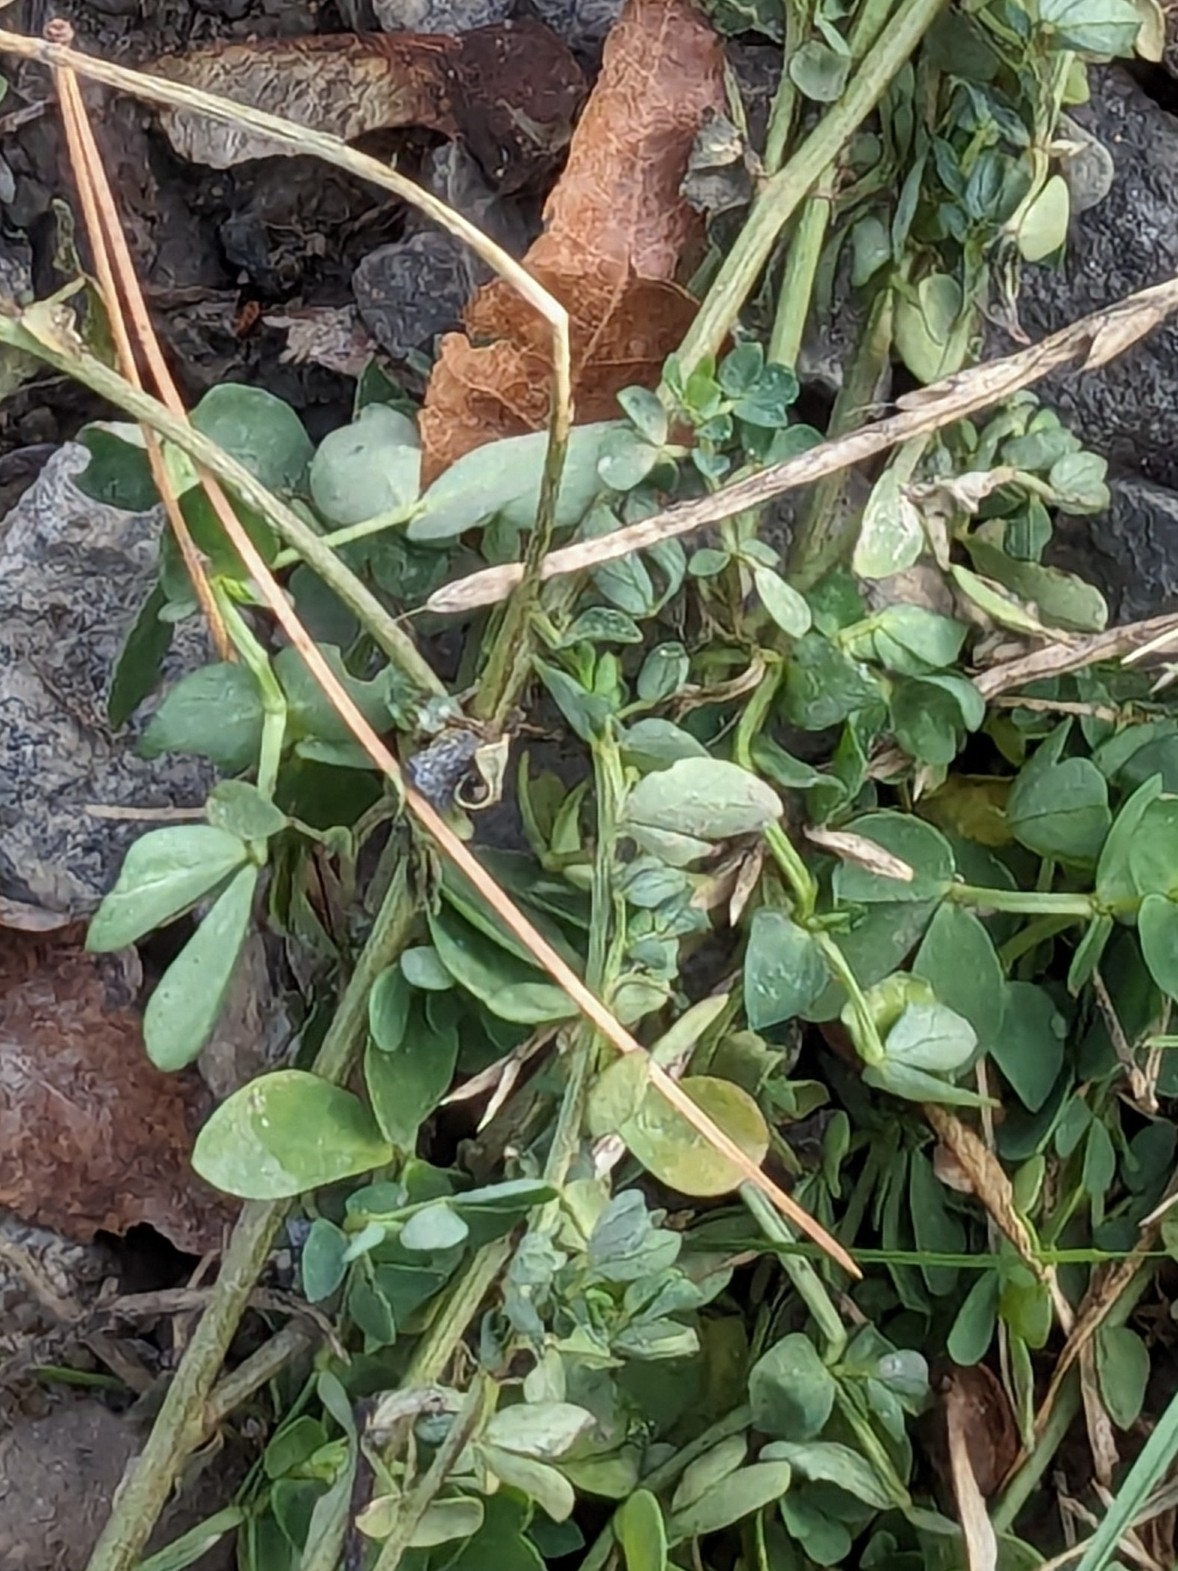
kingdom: Plantae
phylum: Tracheophyta
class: Magnoliopsida
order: Fabales
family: Fabaceae
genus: Lotus
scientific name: Lotus corniculatus
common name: Common bird's-foot-trefoil
